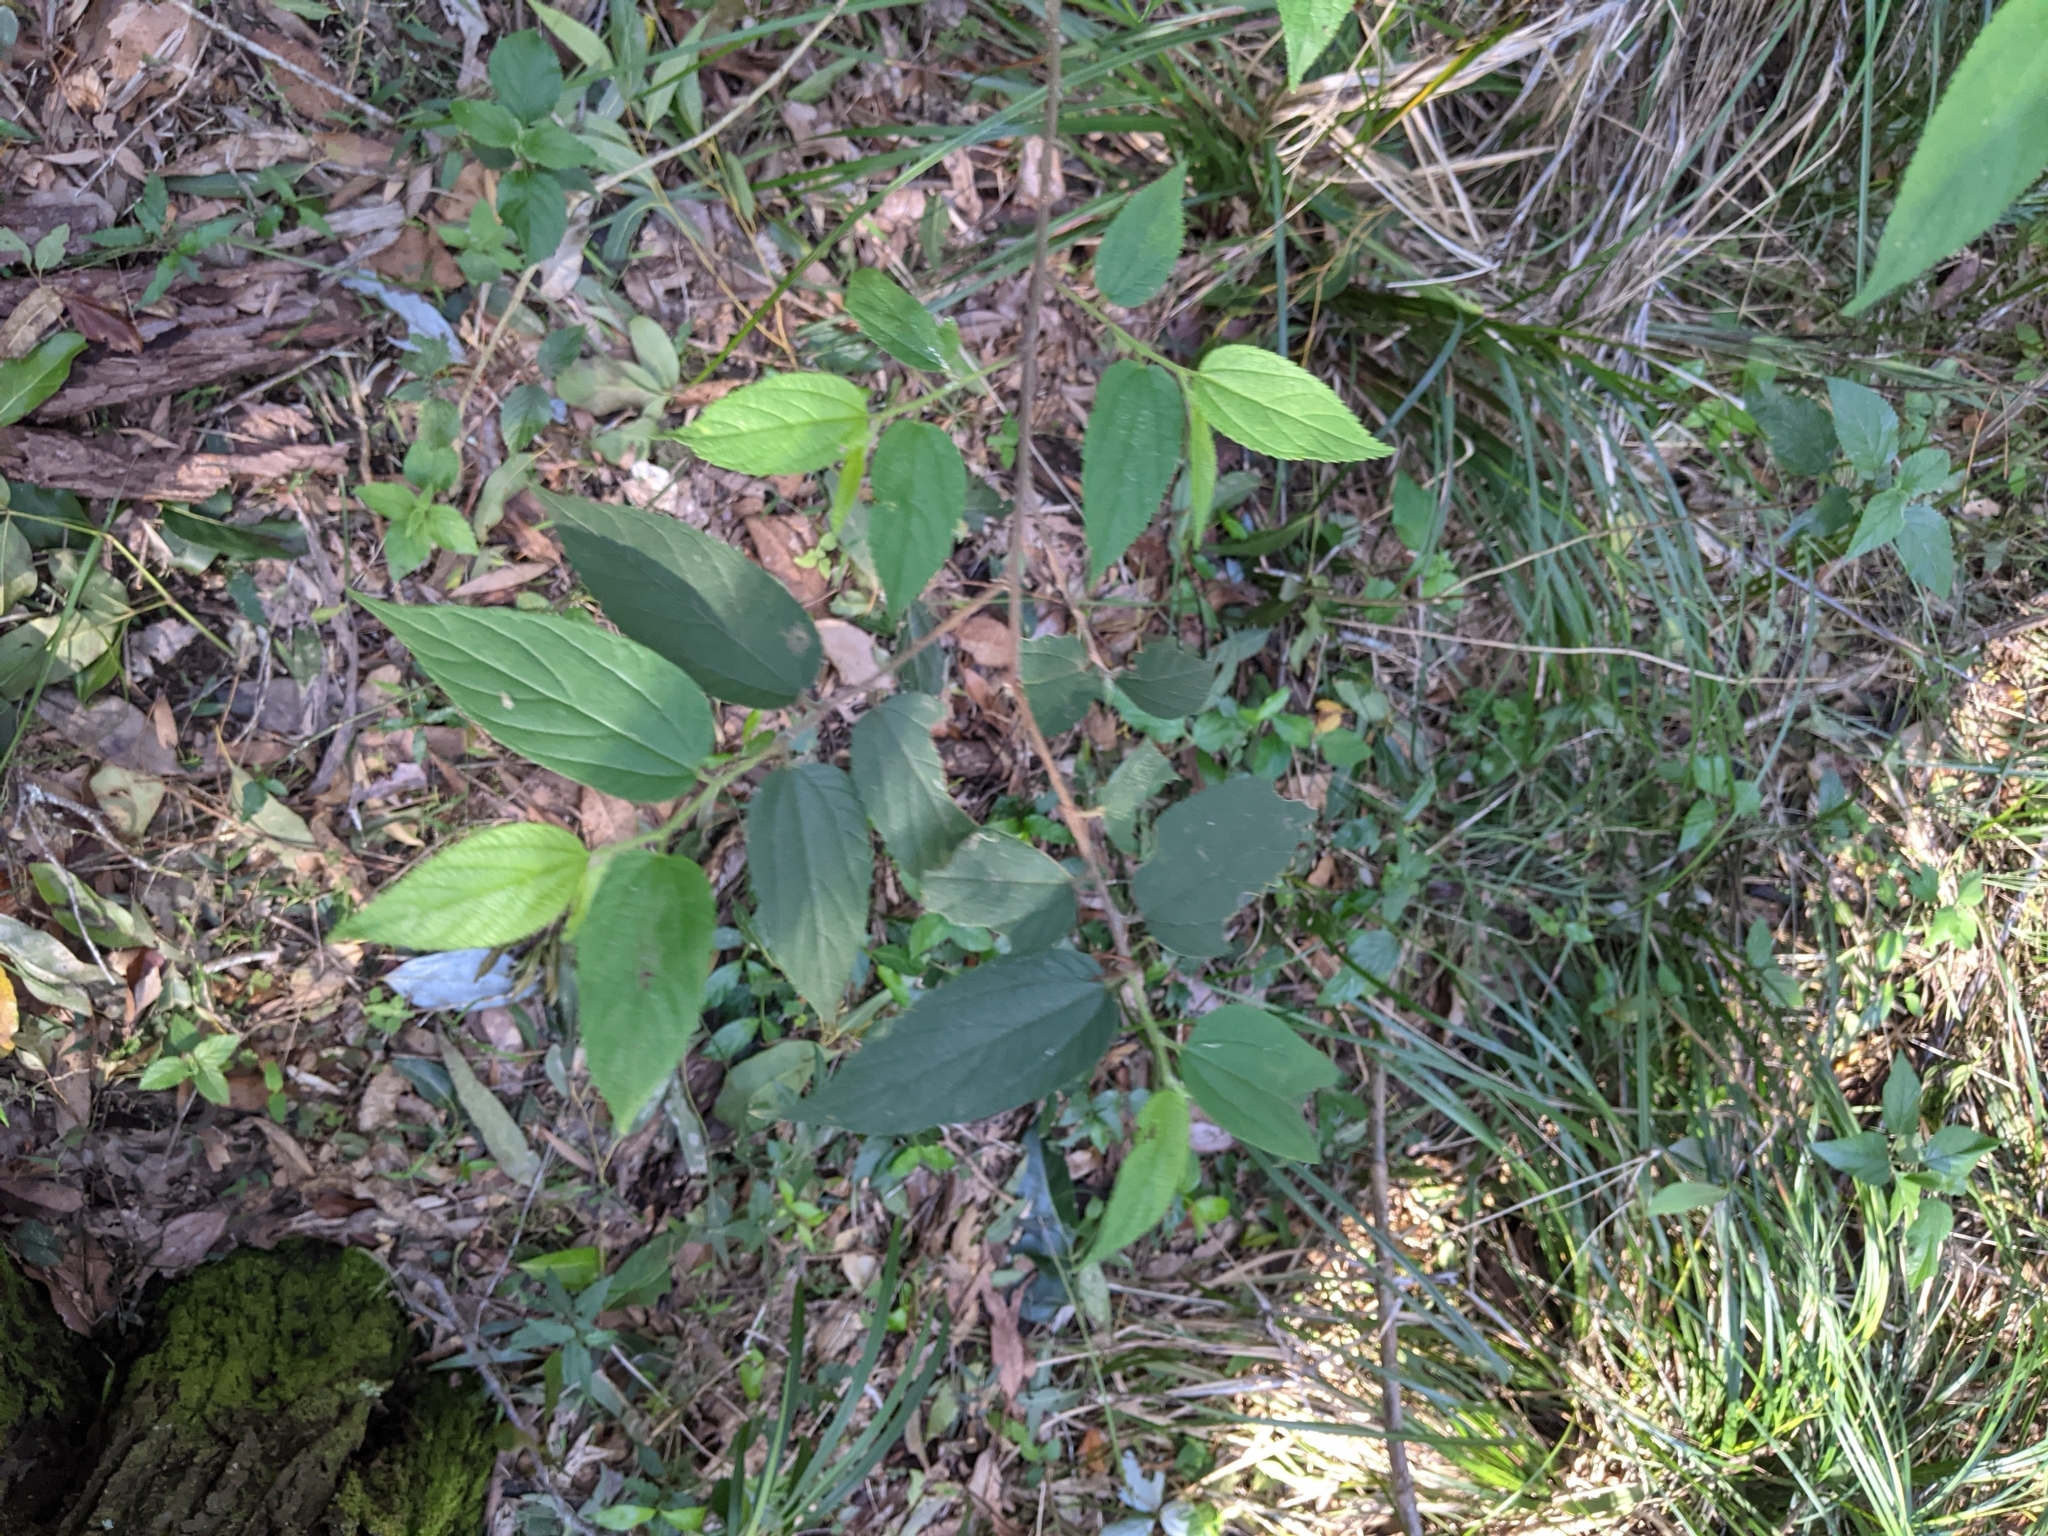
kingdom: Plantae
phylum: Tracheophyta
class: Magnoliopsida
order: Rosales
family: Cannabaceae
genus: Trema
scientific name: Trema tomentosum
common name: Peach-leaf-poisonbush
